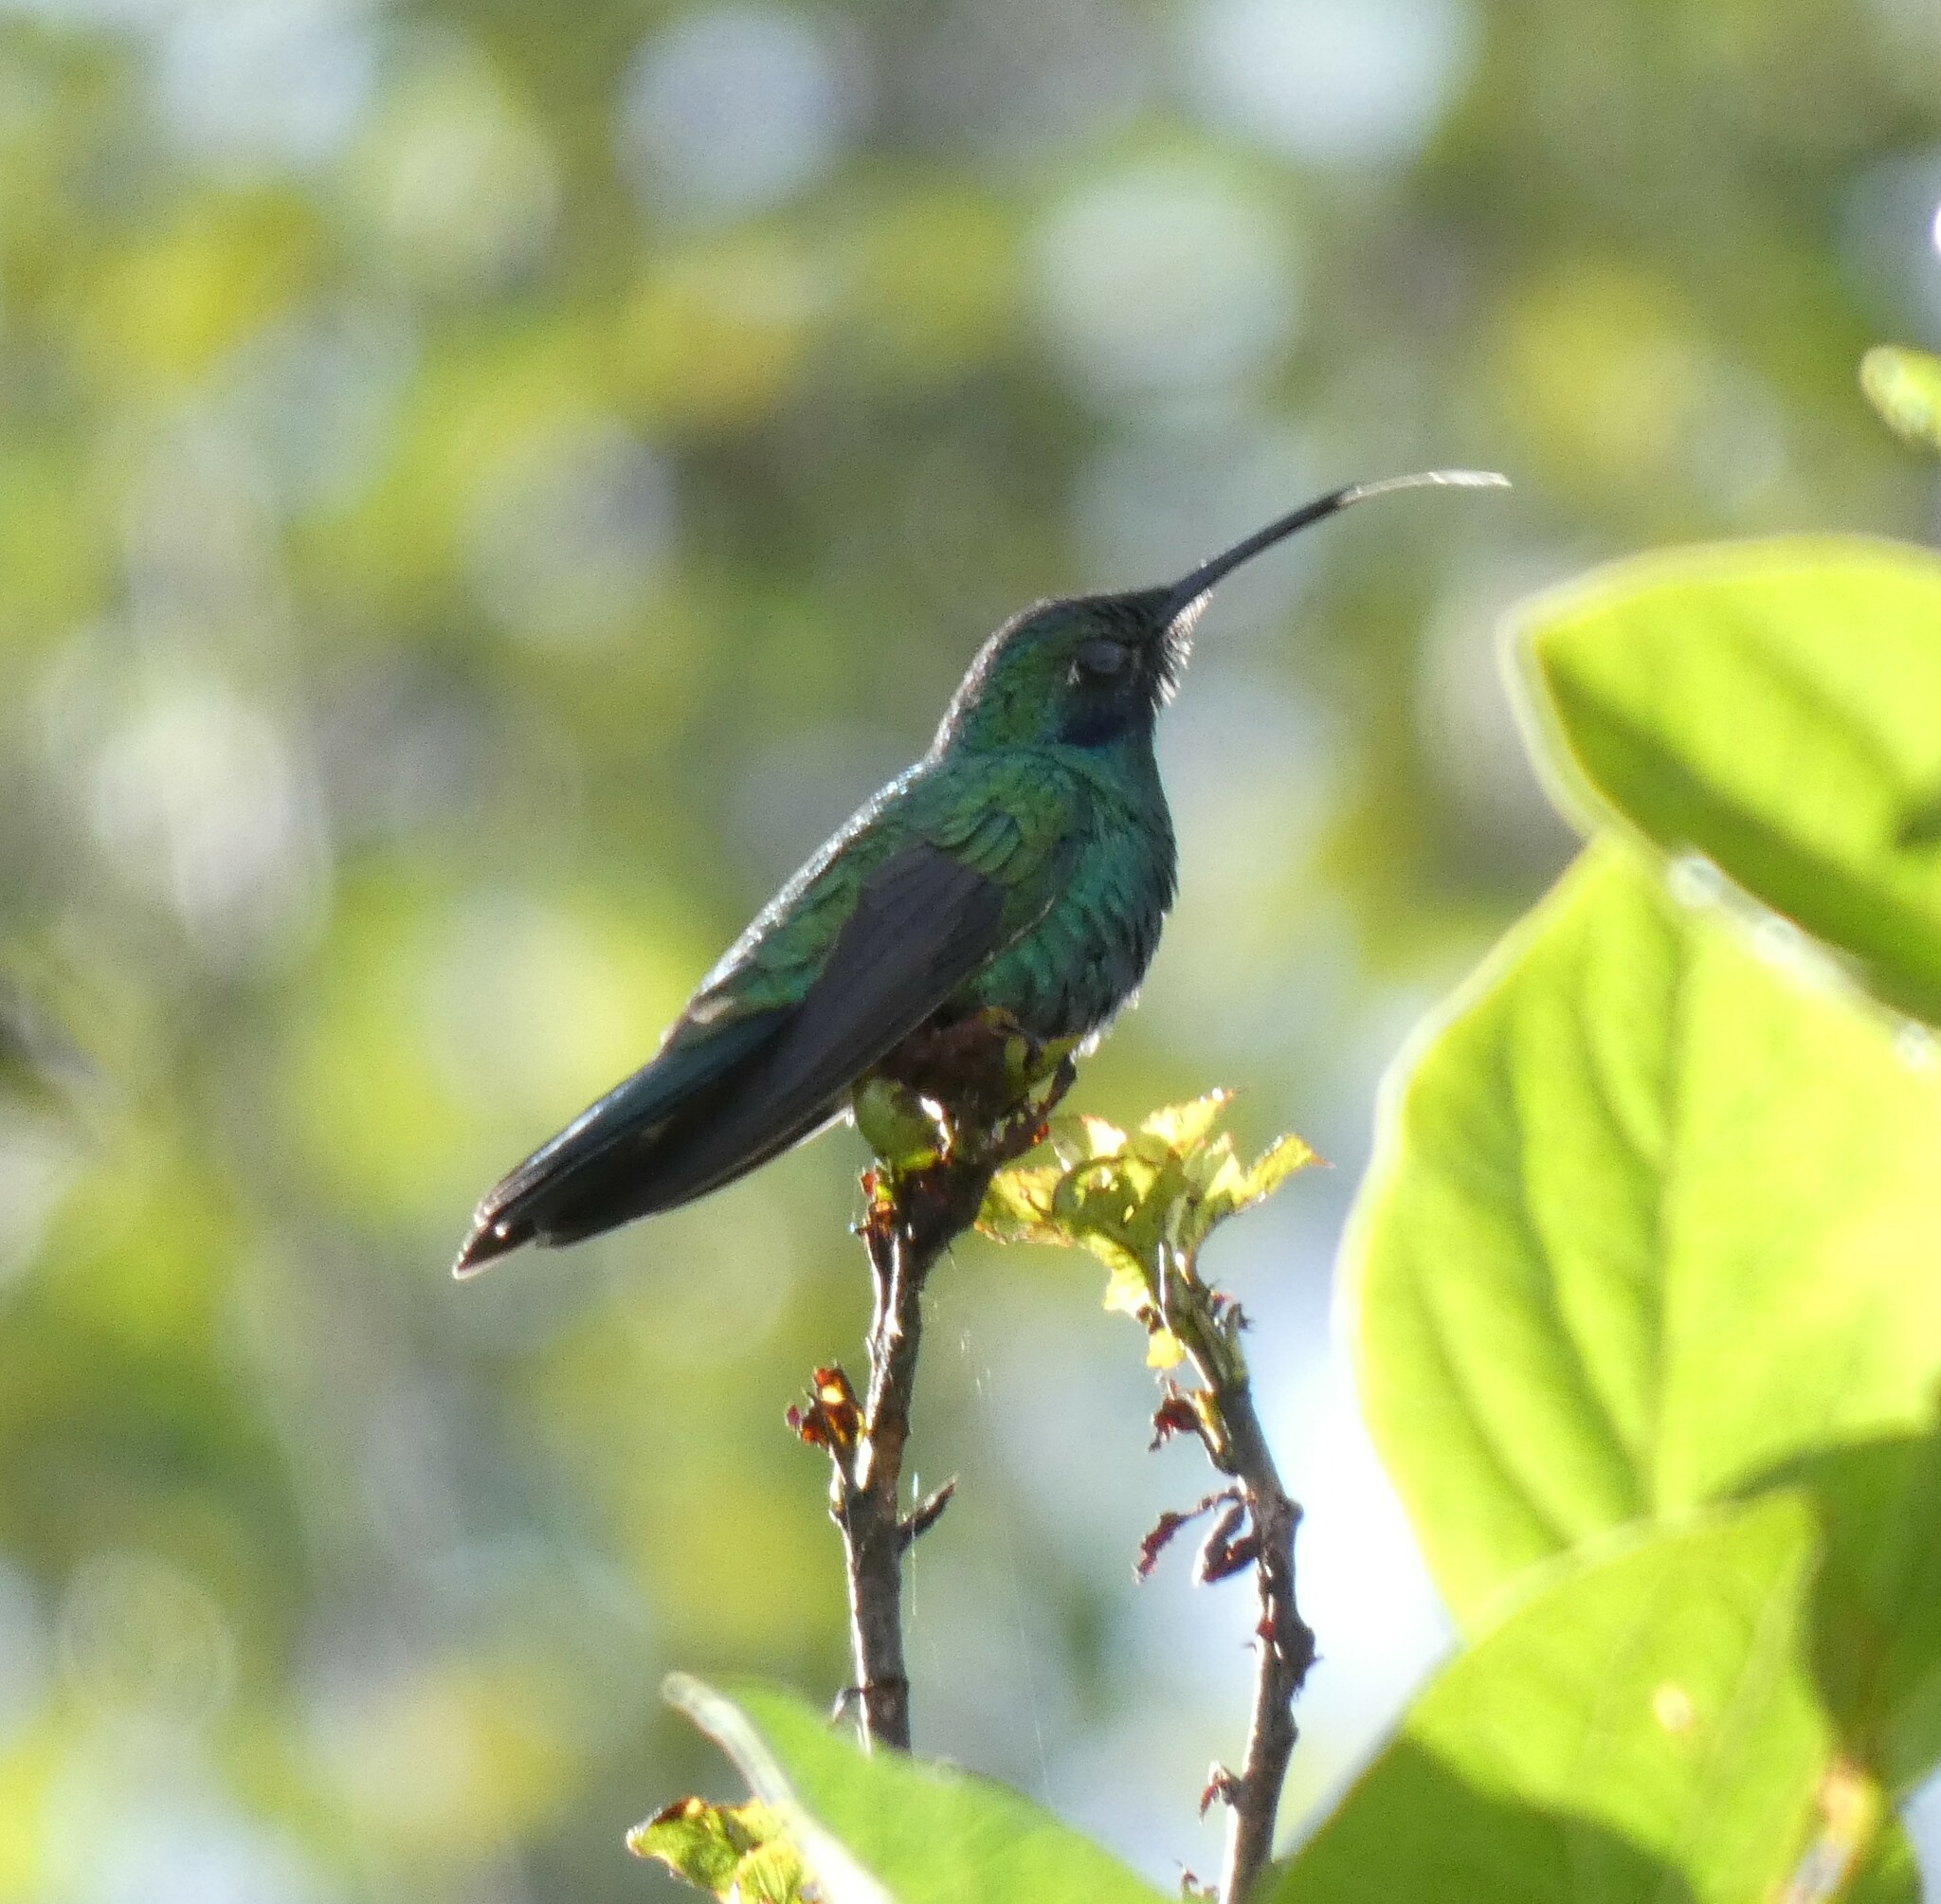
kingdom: Animalia
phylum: Chordata
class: Aves
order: Apodiformes
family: Trochilidae
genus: Colibri
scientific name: Colibri coruscans
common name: Sparkling violetear
